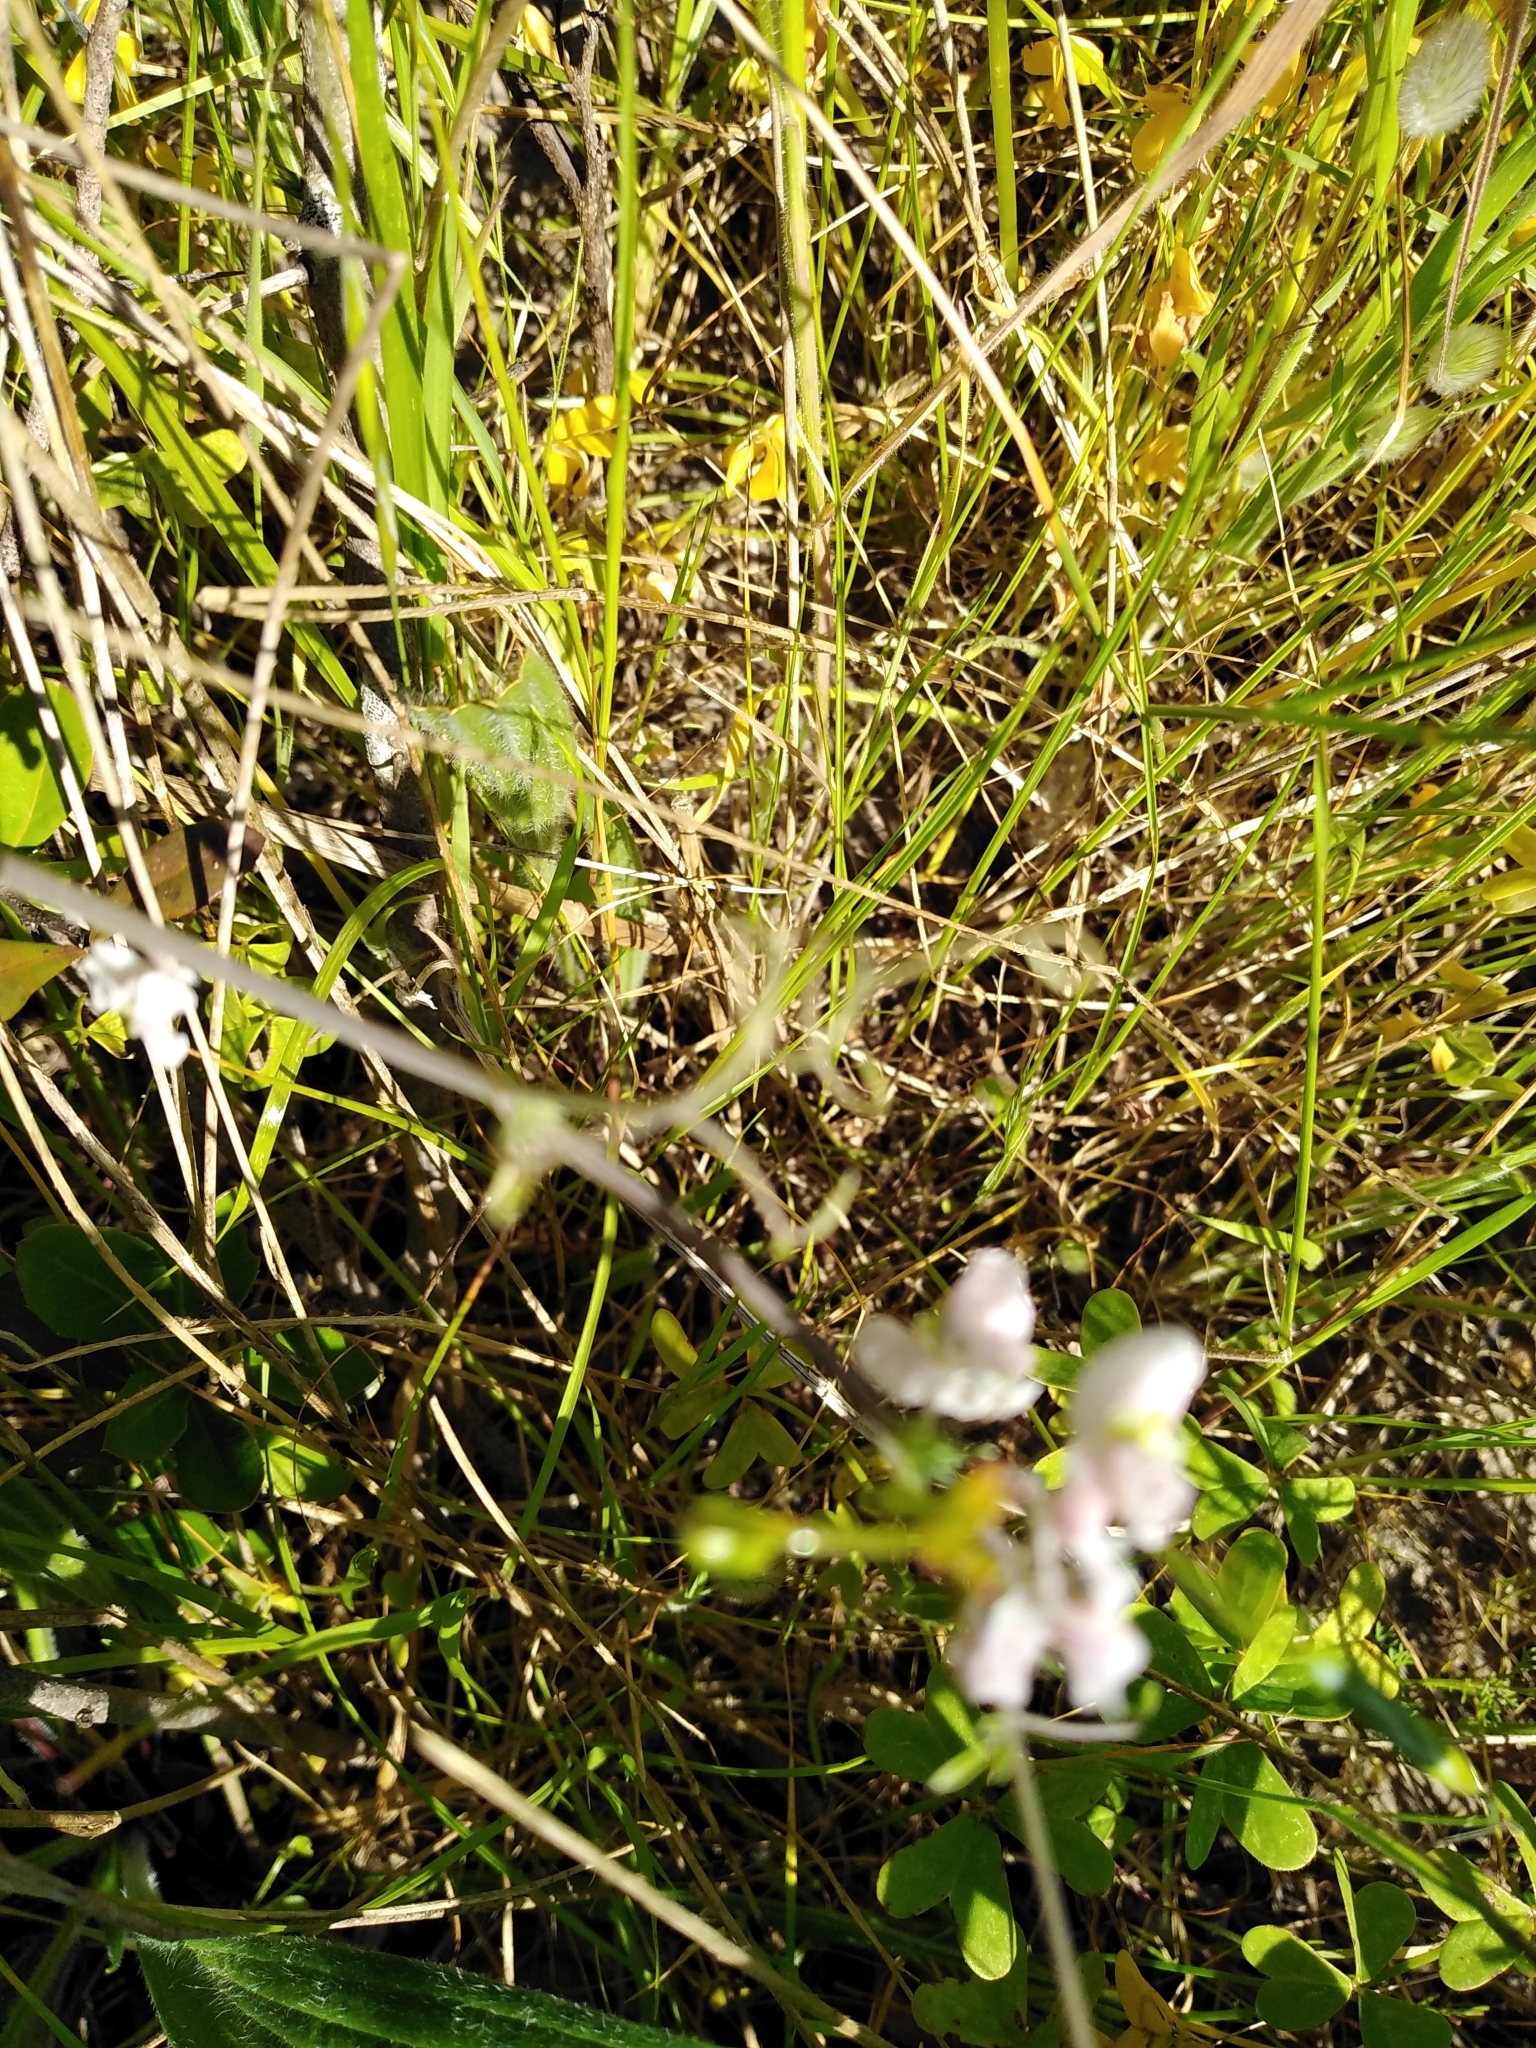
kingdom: Plantae
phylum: Tracheophyta
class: Magnoliopsida
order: Ranunculales
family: Papaveraceae
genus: Cysticapnos
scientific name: Cysticapnos vesicaria
